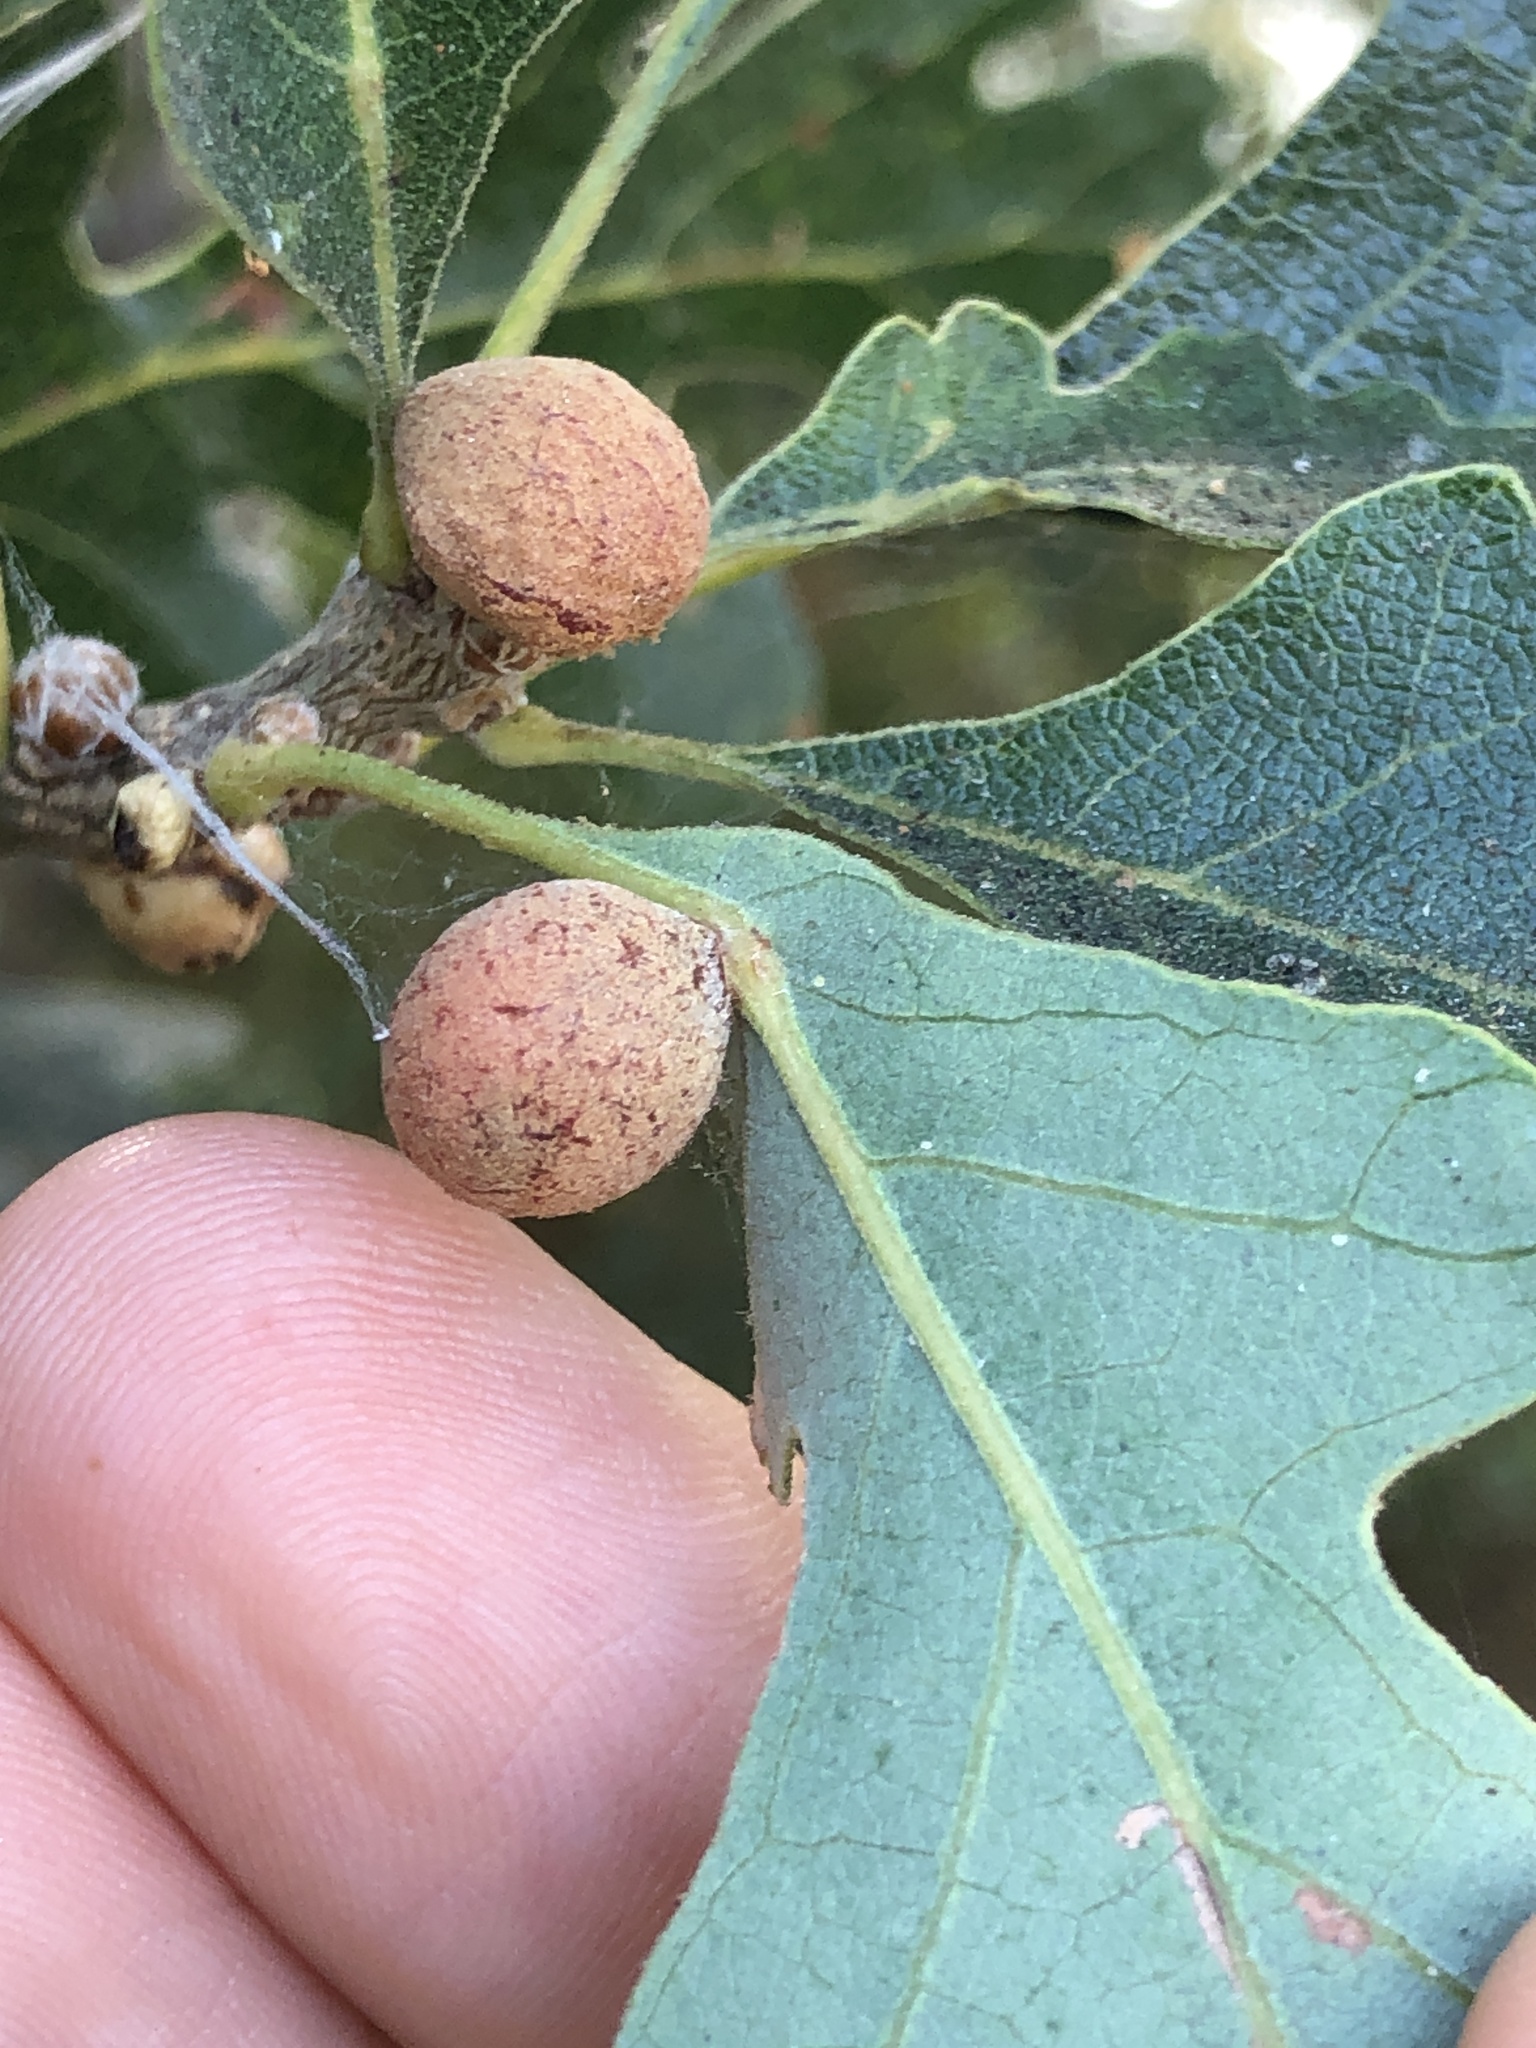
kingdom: Animalia
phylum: Arthropoda
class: Insecta
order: Hymenoptera
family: Cynipidae
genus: Cynips
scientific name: Cynips conspicua
